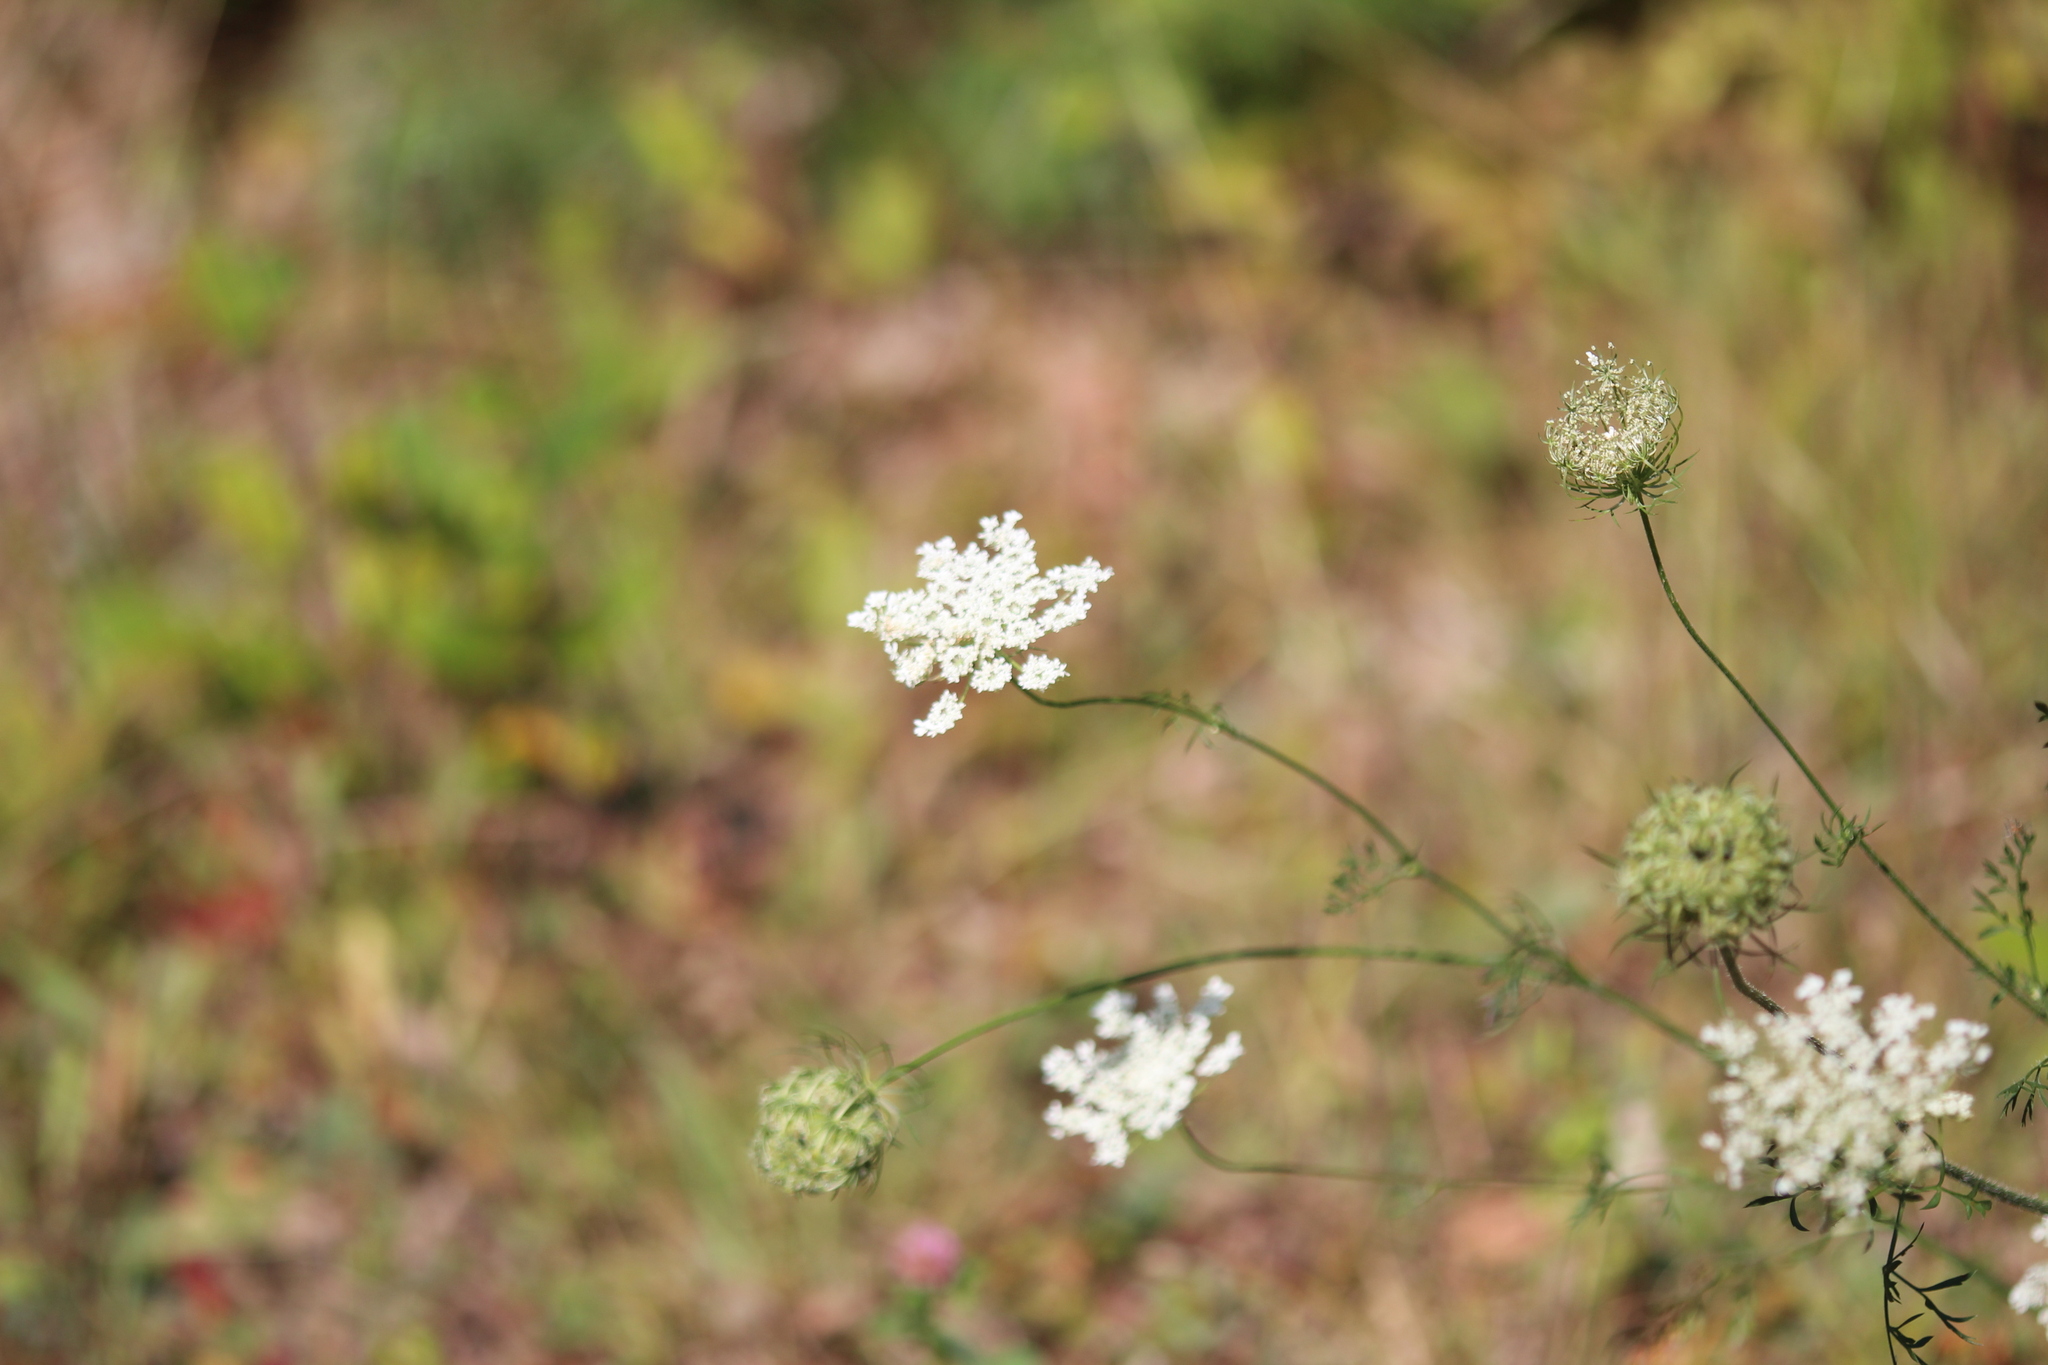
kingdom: Plantae
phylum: Tracheophyta
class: Magnoliopsida
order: Apiales
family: Apiaceae
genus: Daucus
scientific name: Daucus carota
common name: Wild carrot
